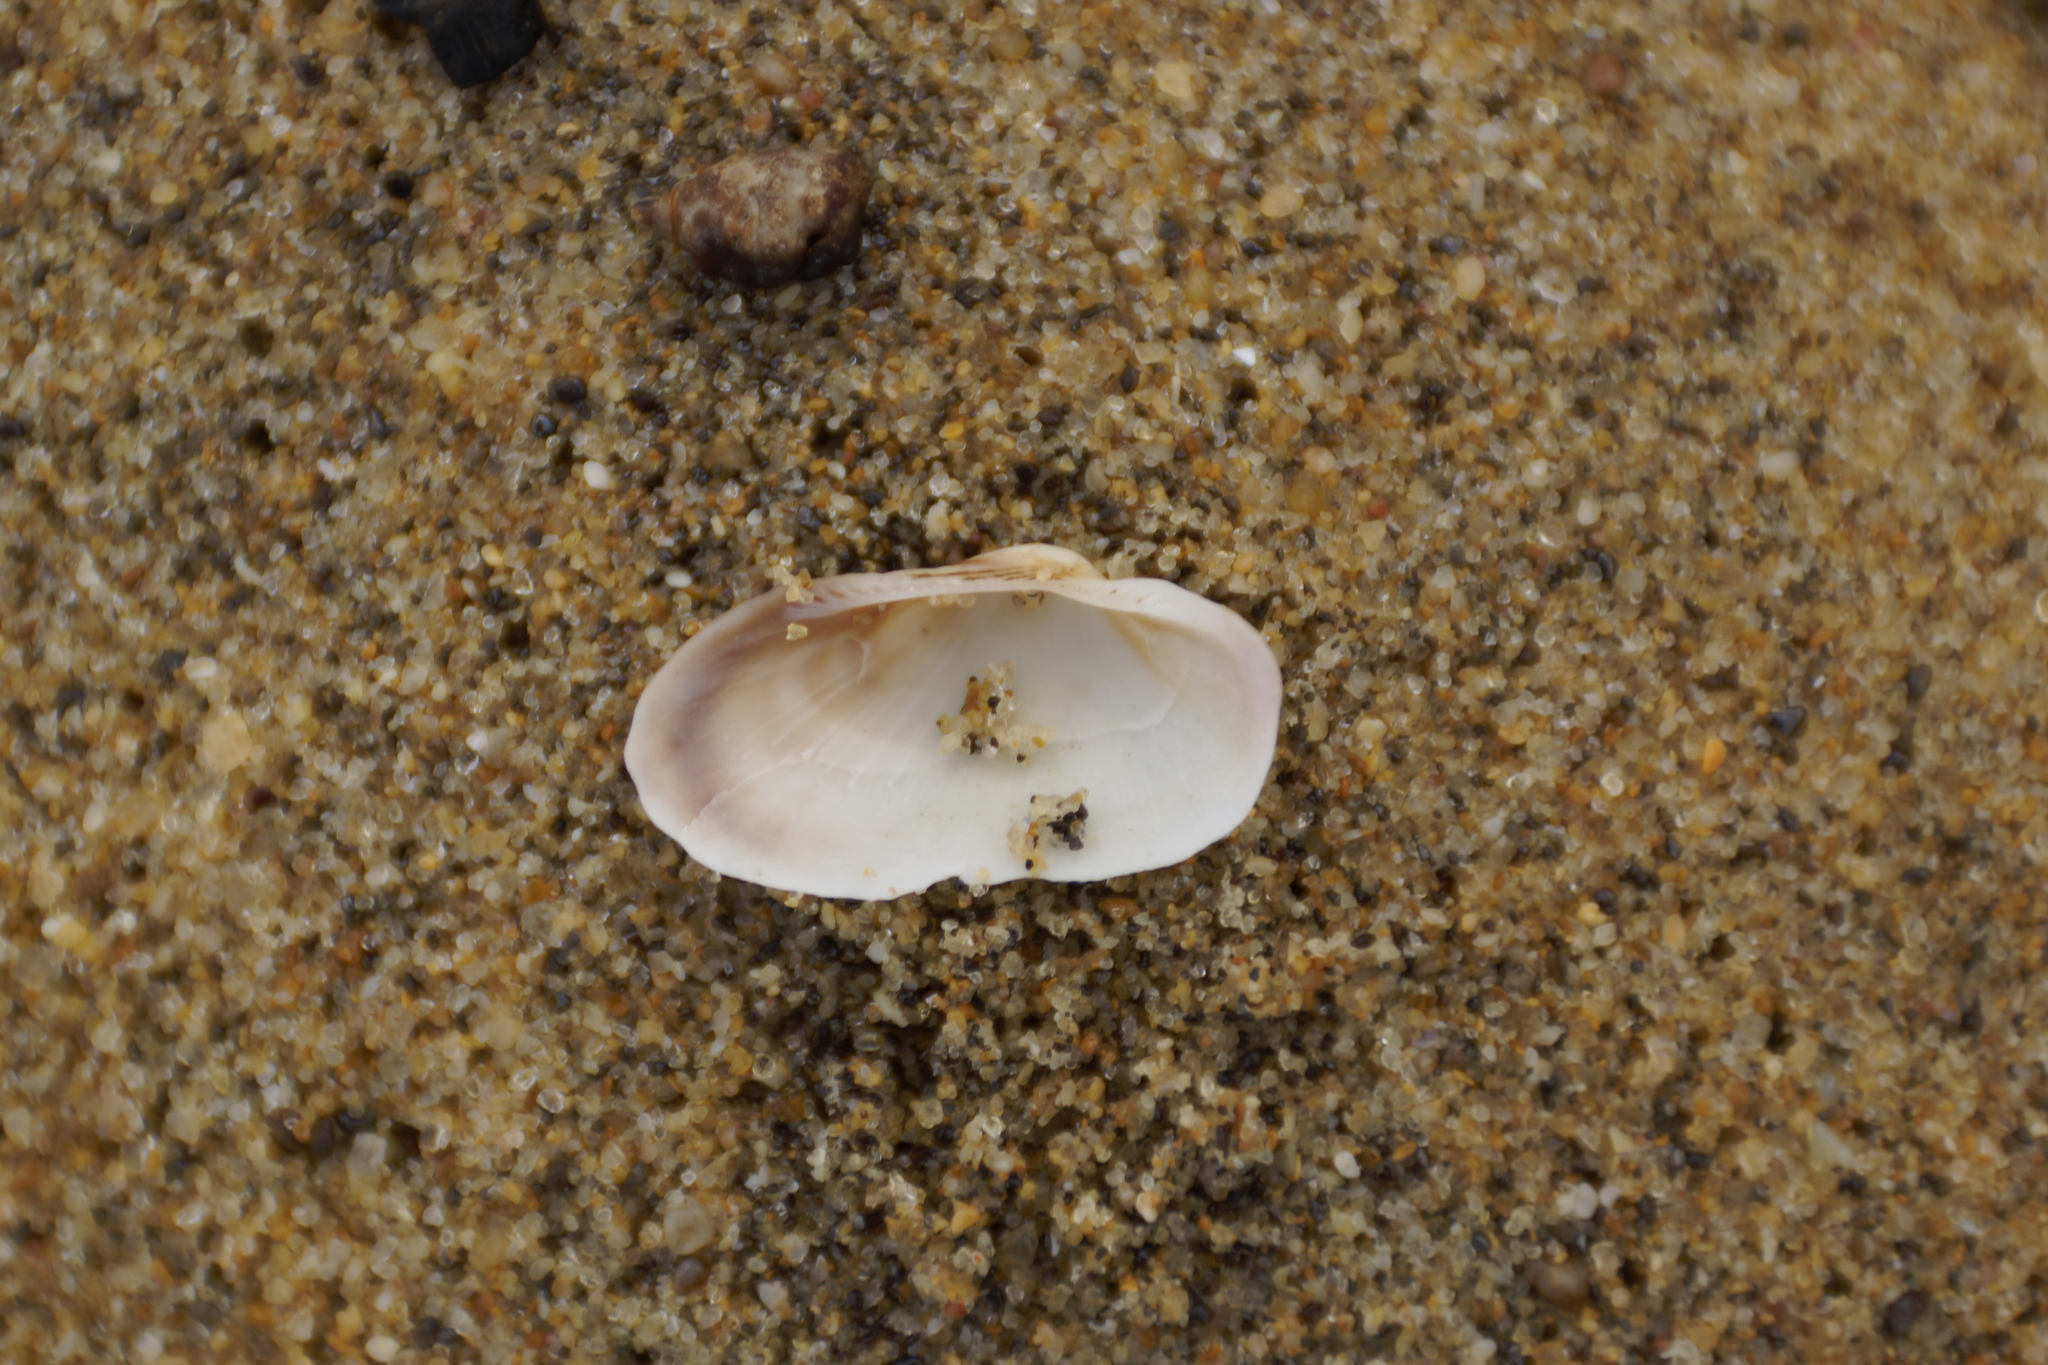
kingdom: Animalia
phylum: Mollusca
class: Bivalvia
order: Arcida
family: Arcidae
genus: Barbatia
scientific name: Barbatia pistachia
